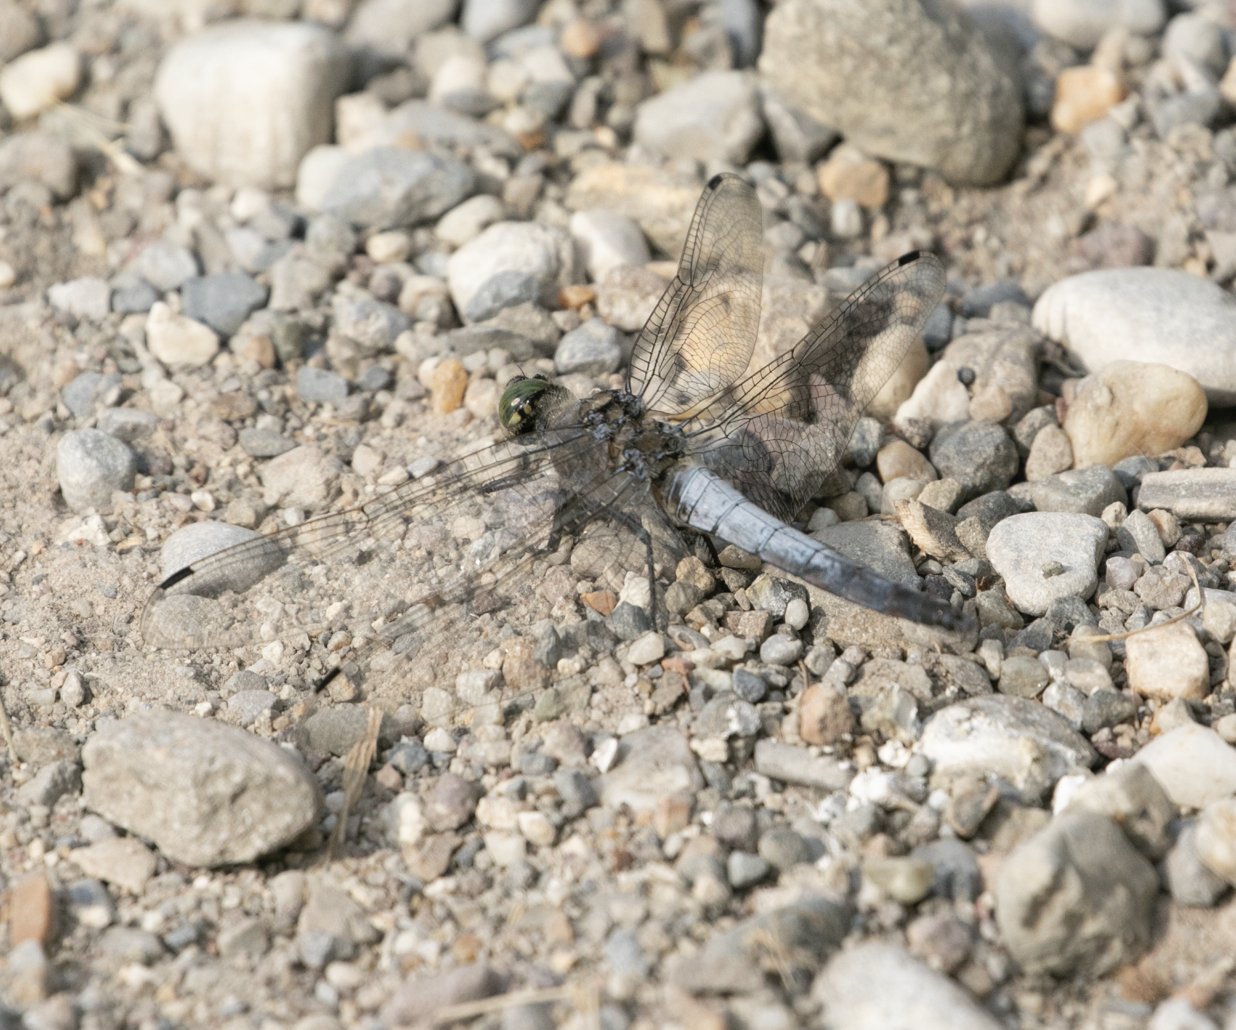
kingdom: Animalia
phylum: Arthropoda
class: Insecta
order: Odonata
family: Libellulidae
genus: Orthetrum
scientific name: Orthetrum cancellatum
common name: Black-tailed skimmer
